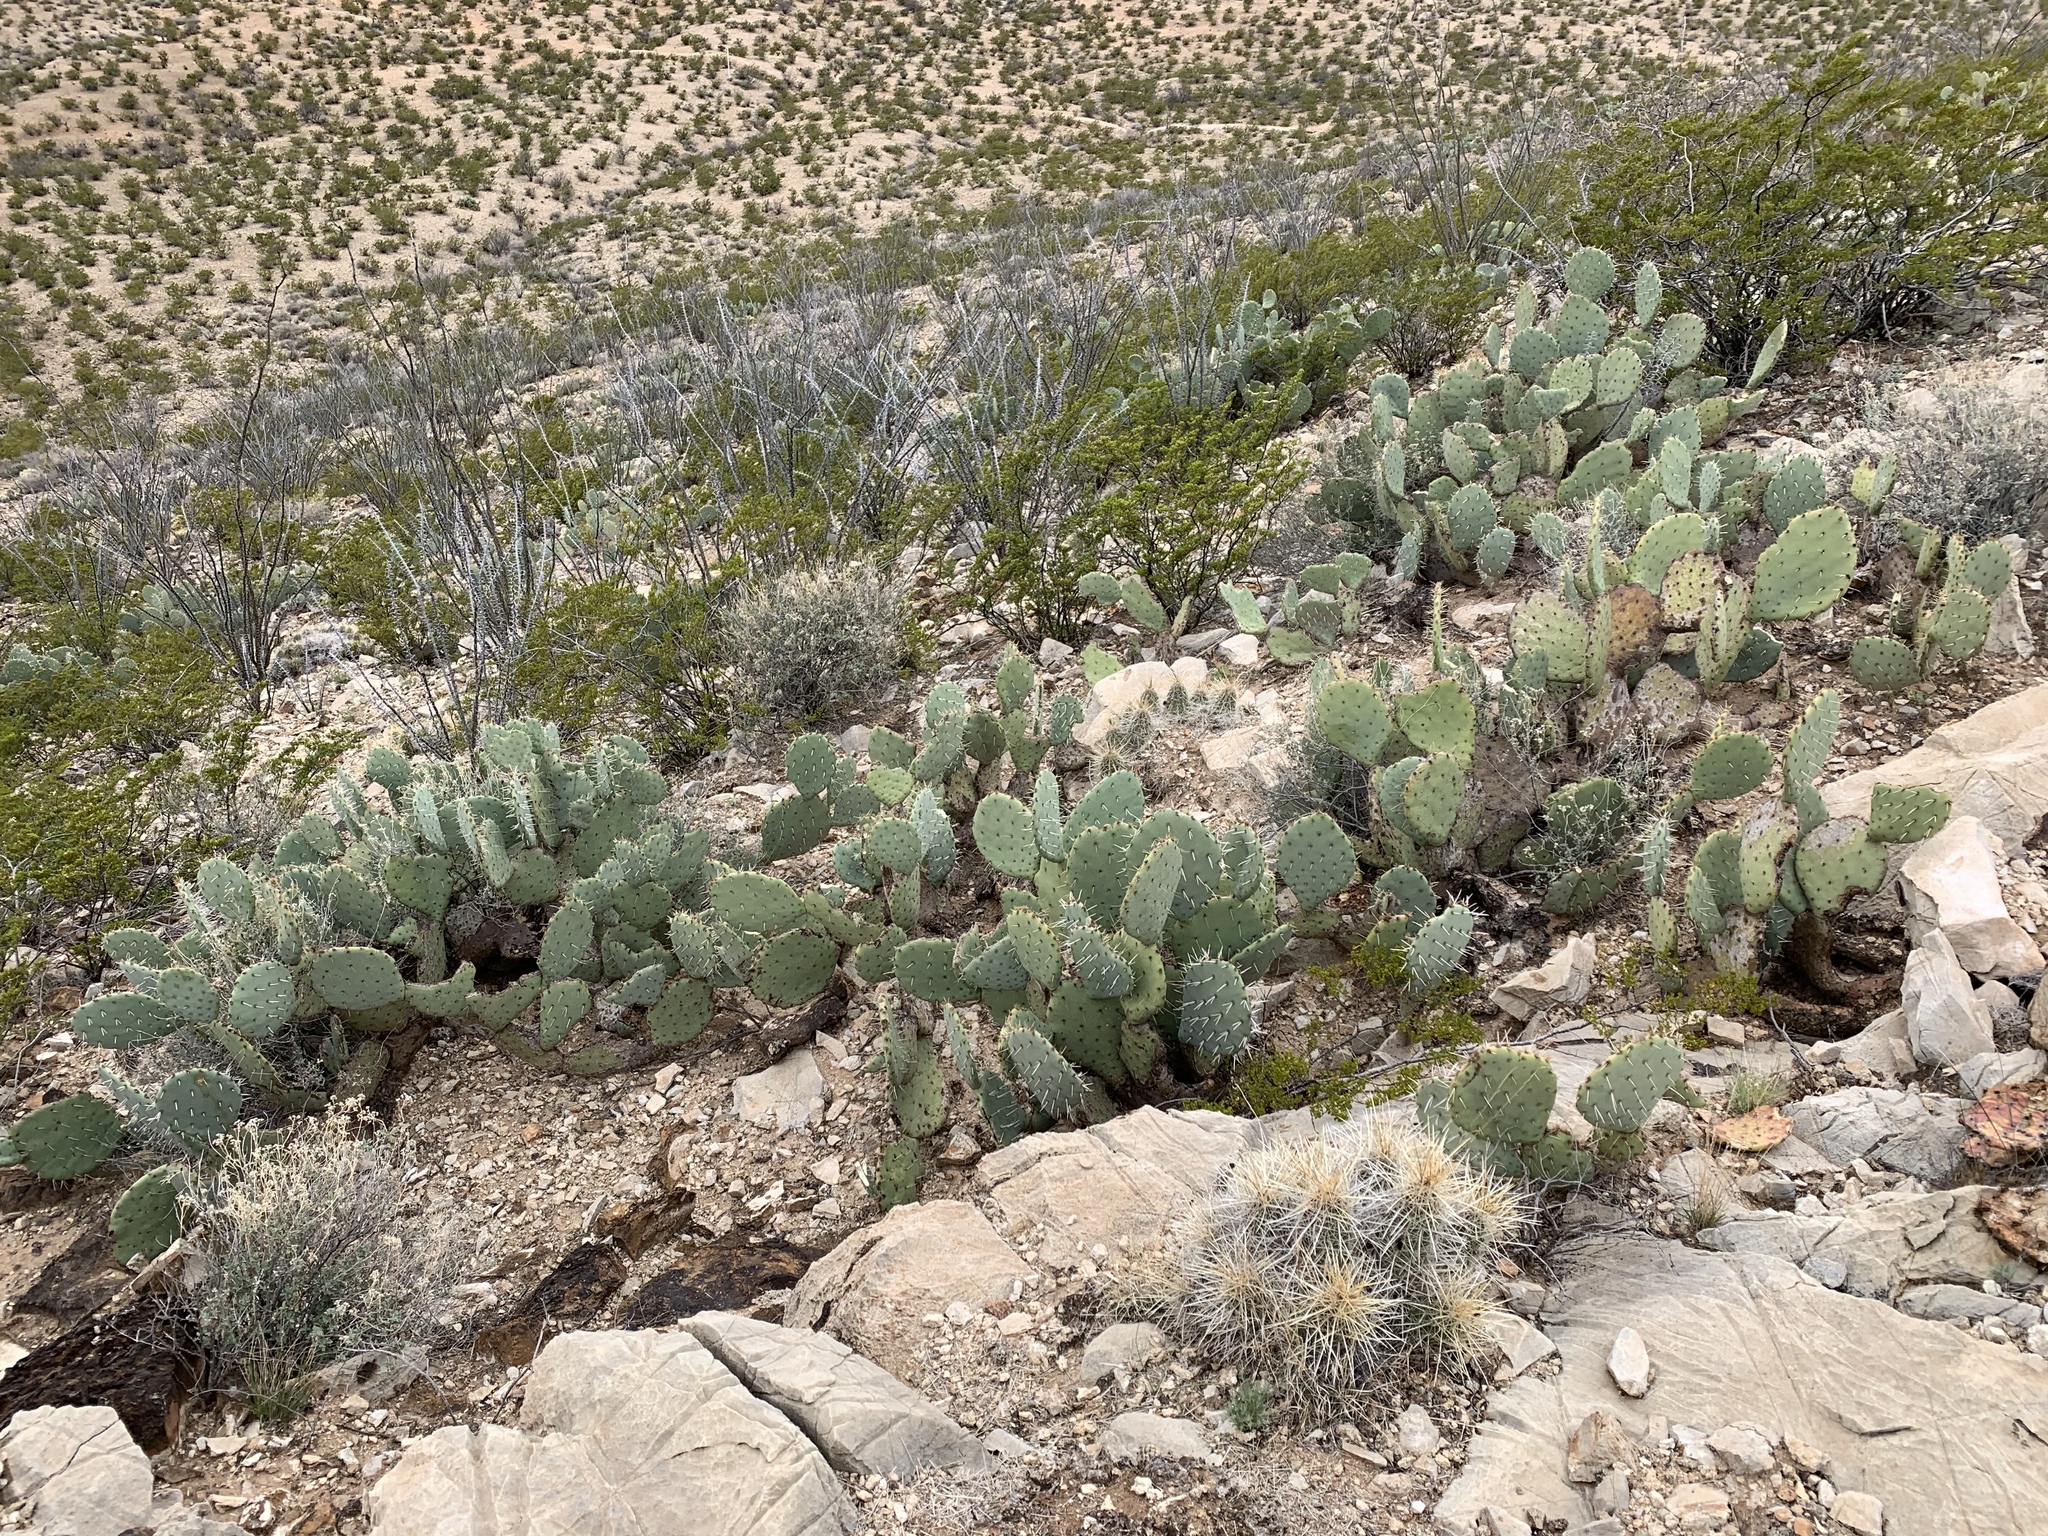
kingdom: Plantae
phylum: Tracheophyta
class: Magnoliopsida
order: Caryophyllales
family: Cactaceae
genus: Opuntia
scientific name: Opuntia engelmannii
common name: Cactus-apple
